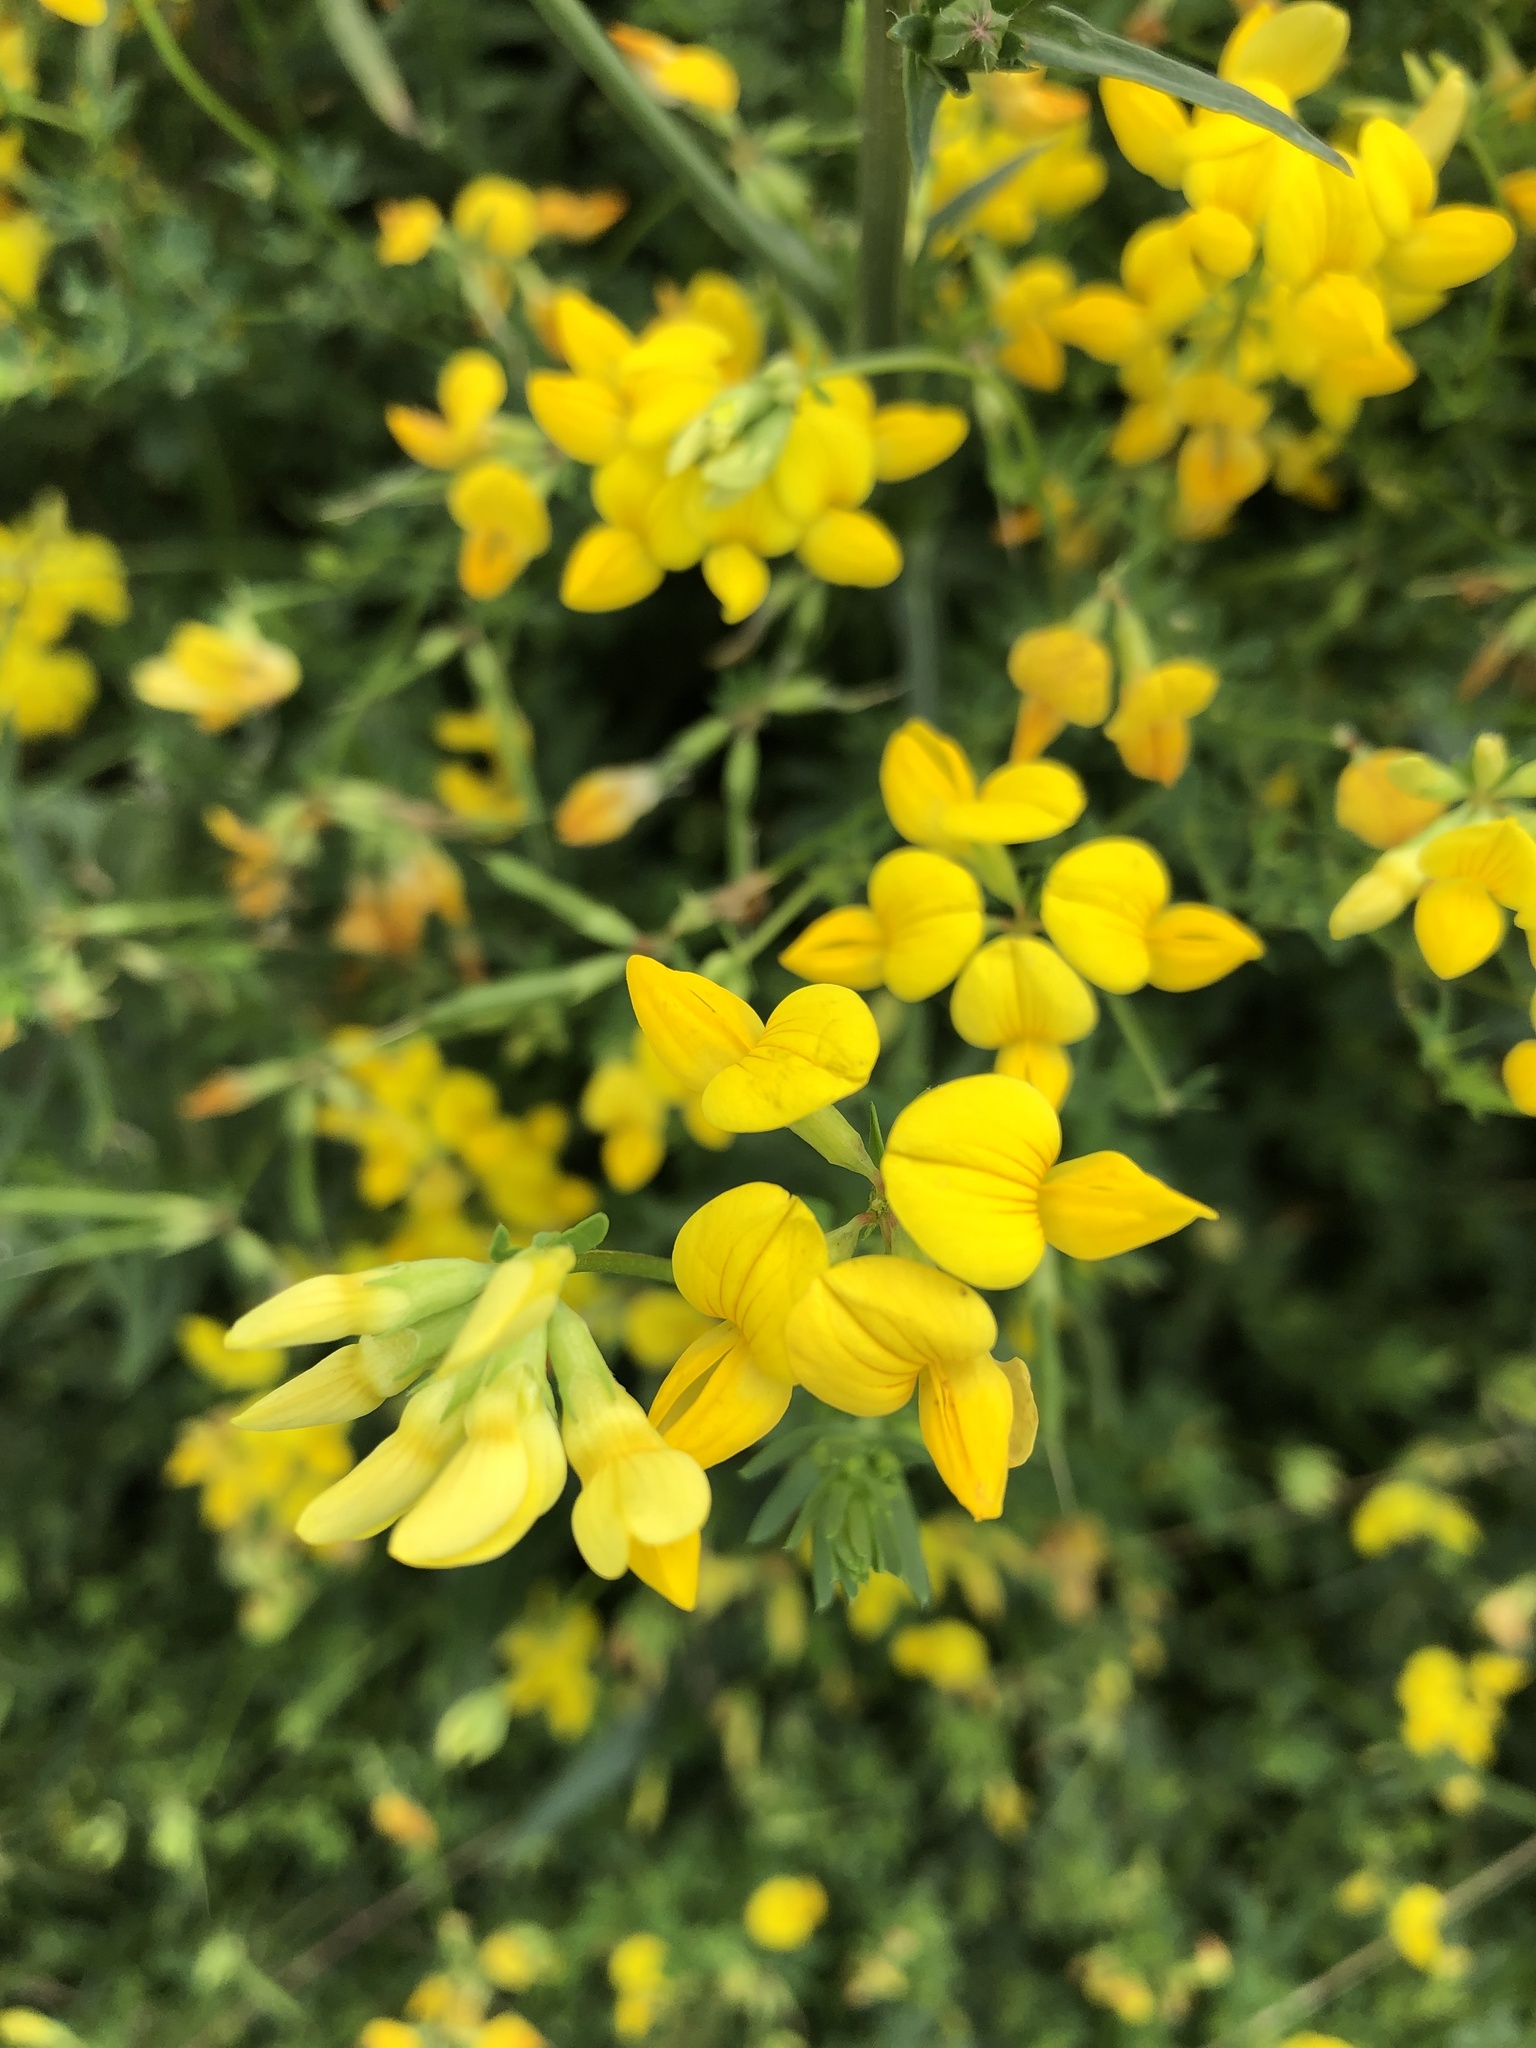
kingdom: Plantae
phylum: Tracheophyta
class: Magnoliopsida
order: Fabales
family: Fabaceae
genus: Lotus
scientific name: Lotus corniculatus
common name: Common bird's-foot-trefoil
